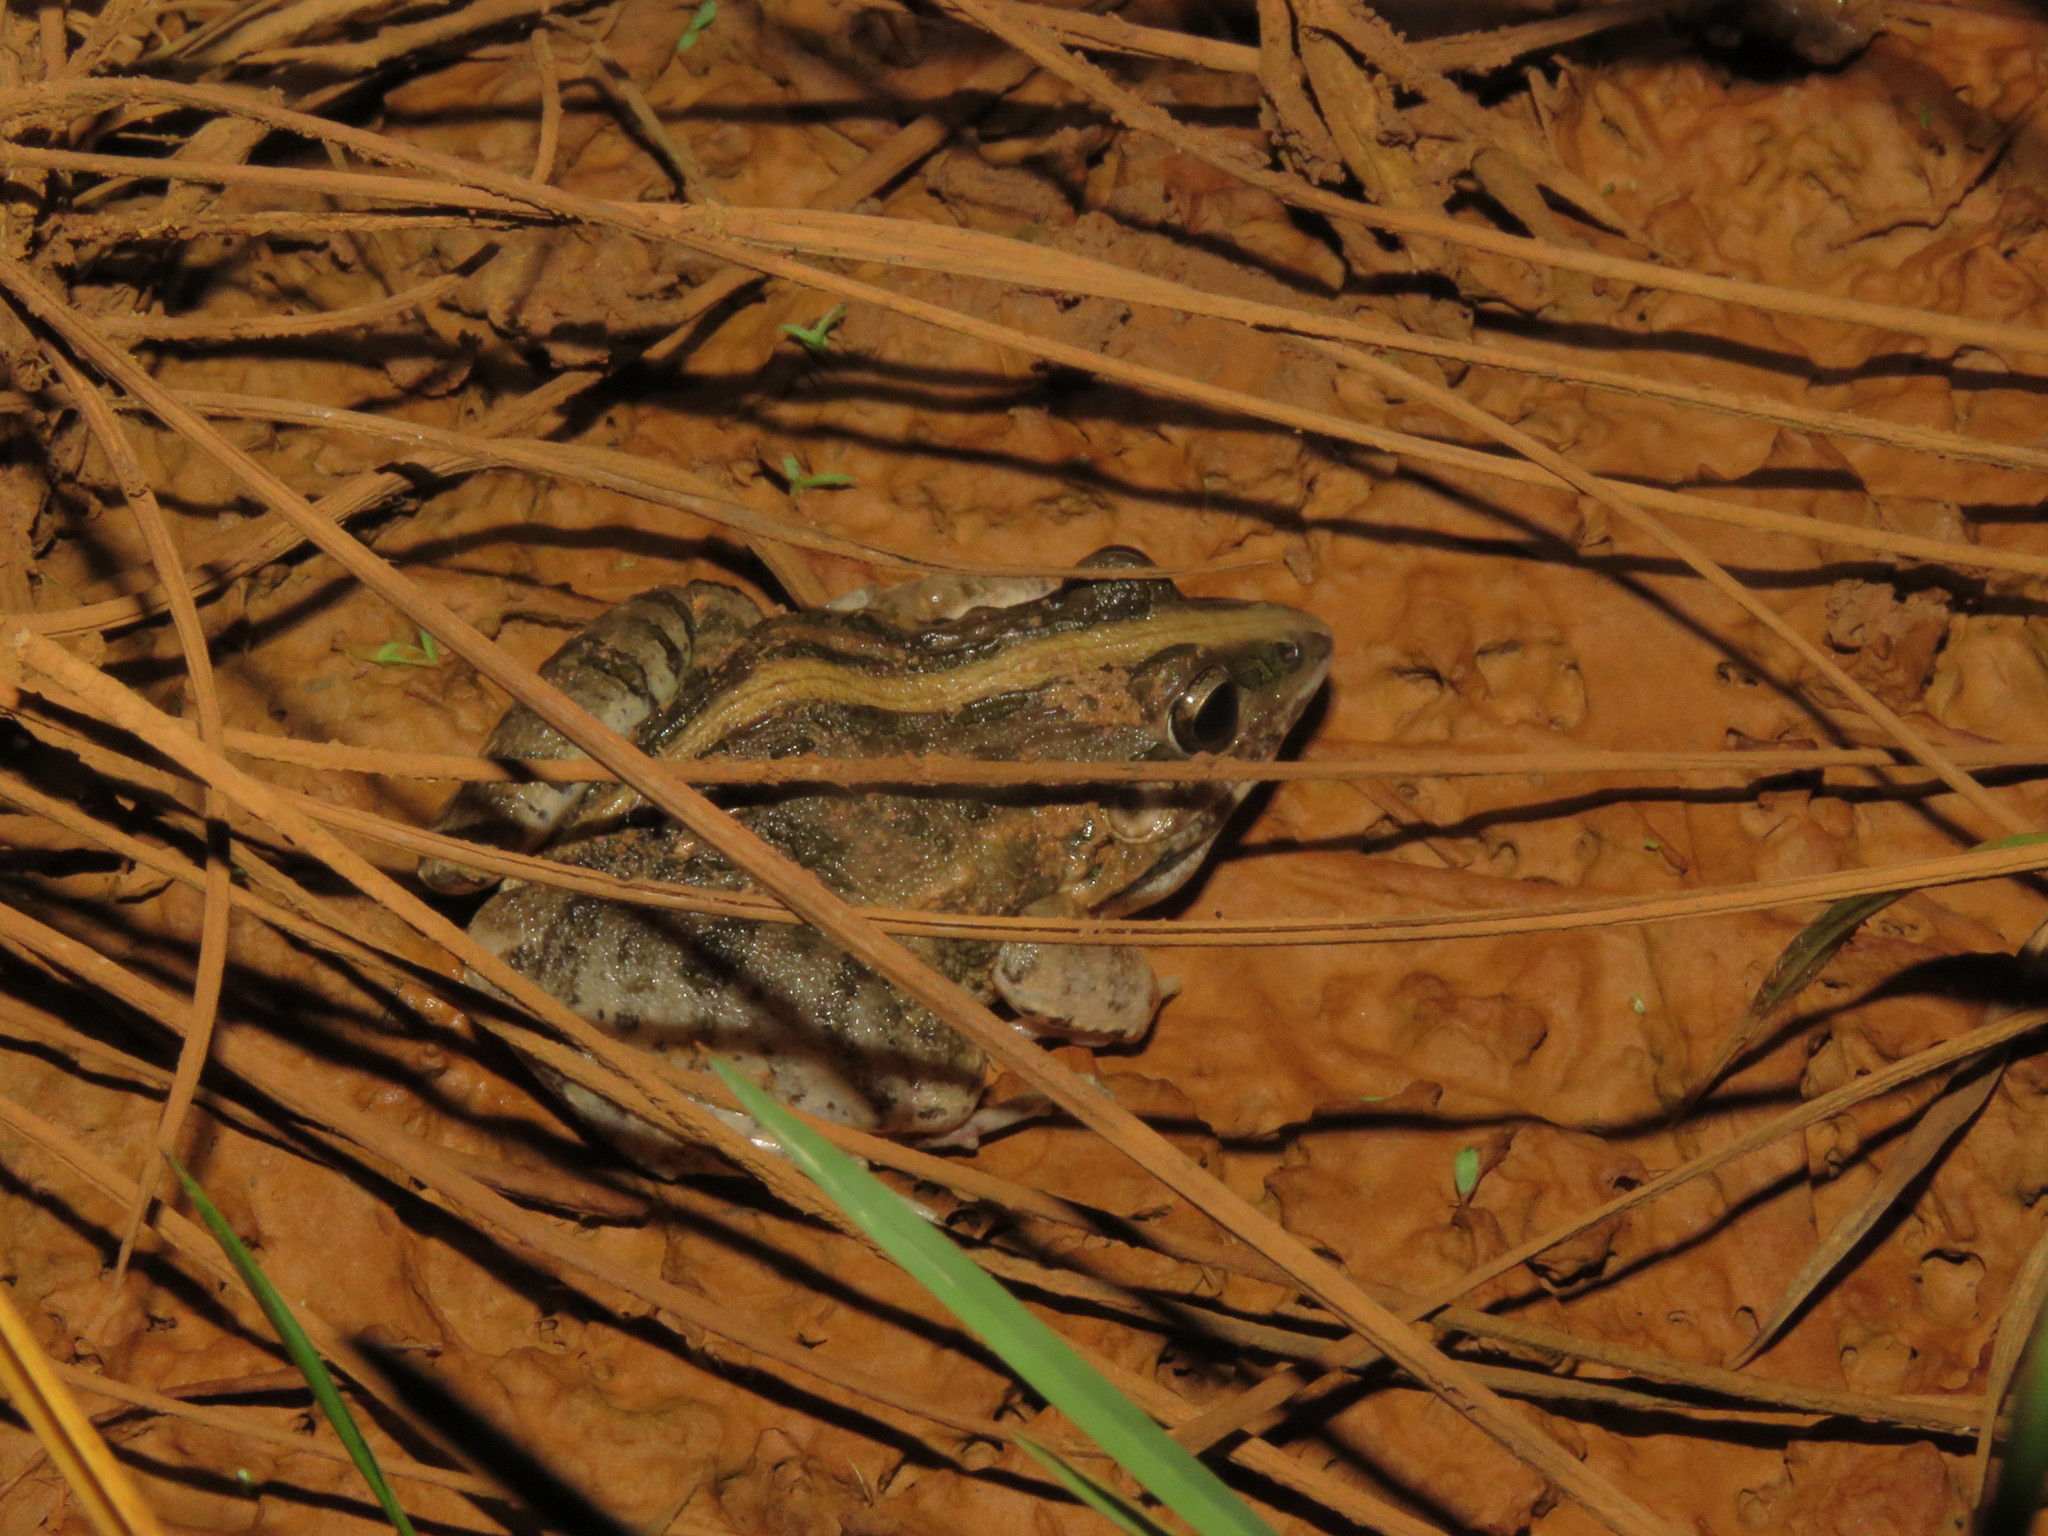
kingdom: Animalia
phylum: Chordata
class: Amphibia
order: Anura
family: Leptodactylidae
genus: Leptodactylus
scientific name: Leptodactylus fuscus
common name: Rufous frog
